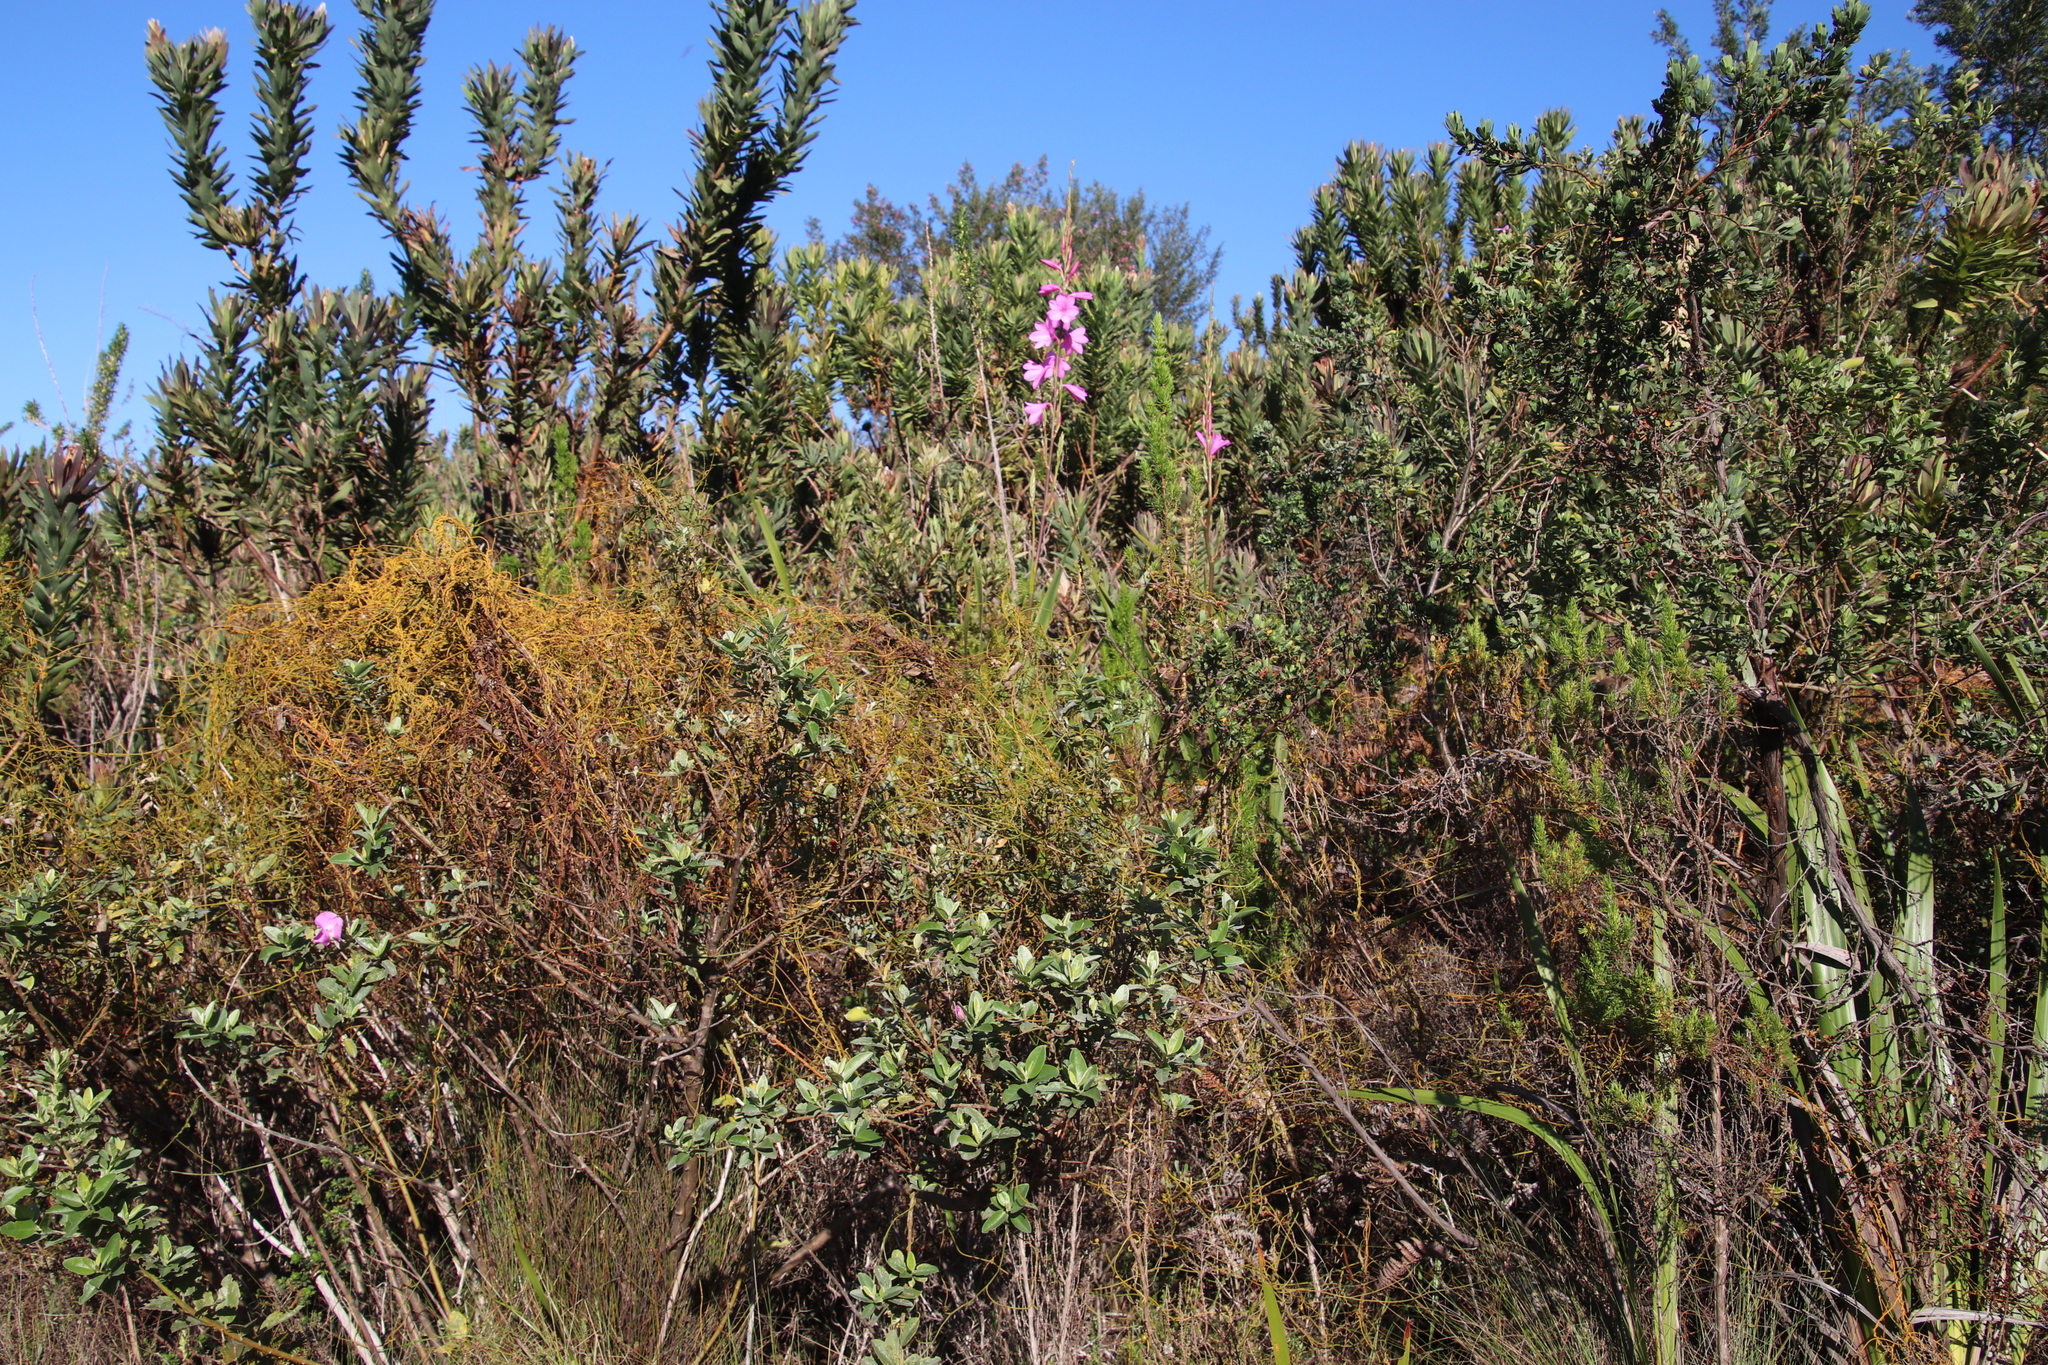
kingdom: Plantae
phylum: Tracheophyta
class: Magnoliopsida
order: Laurales
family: Lauraceae
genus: Cassytha
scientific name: Cassytha ciliolata
